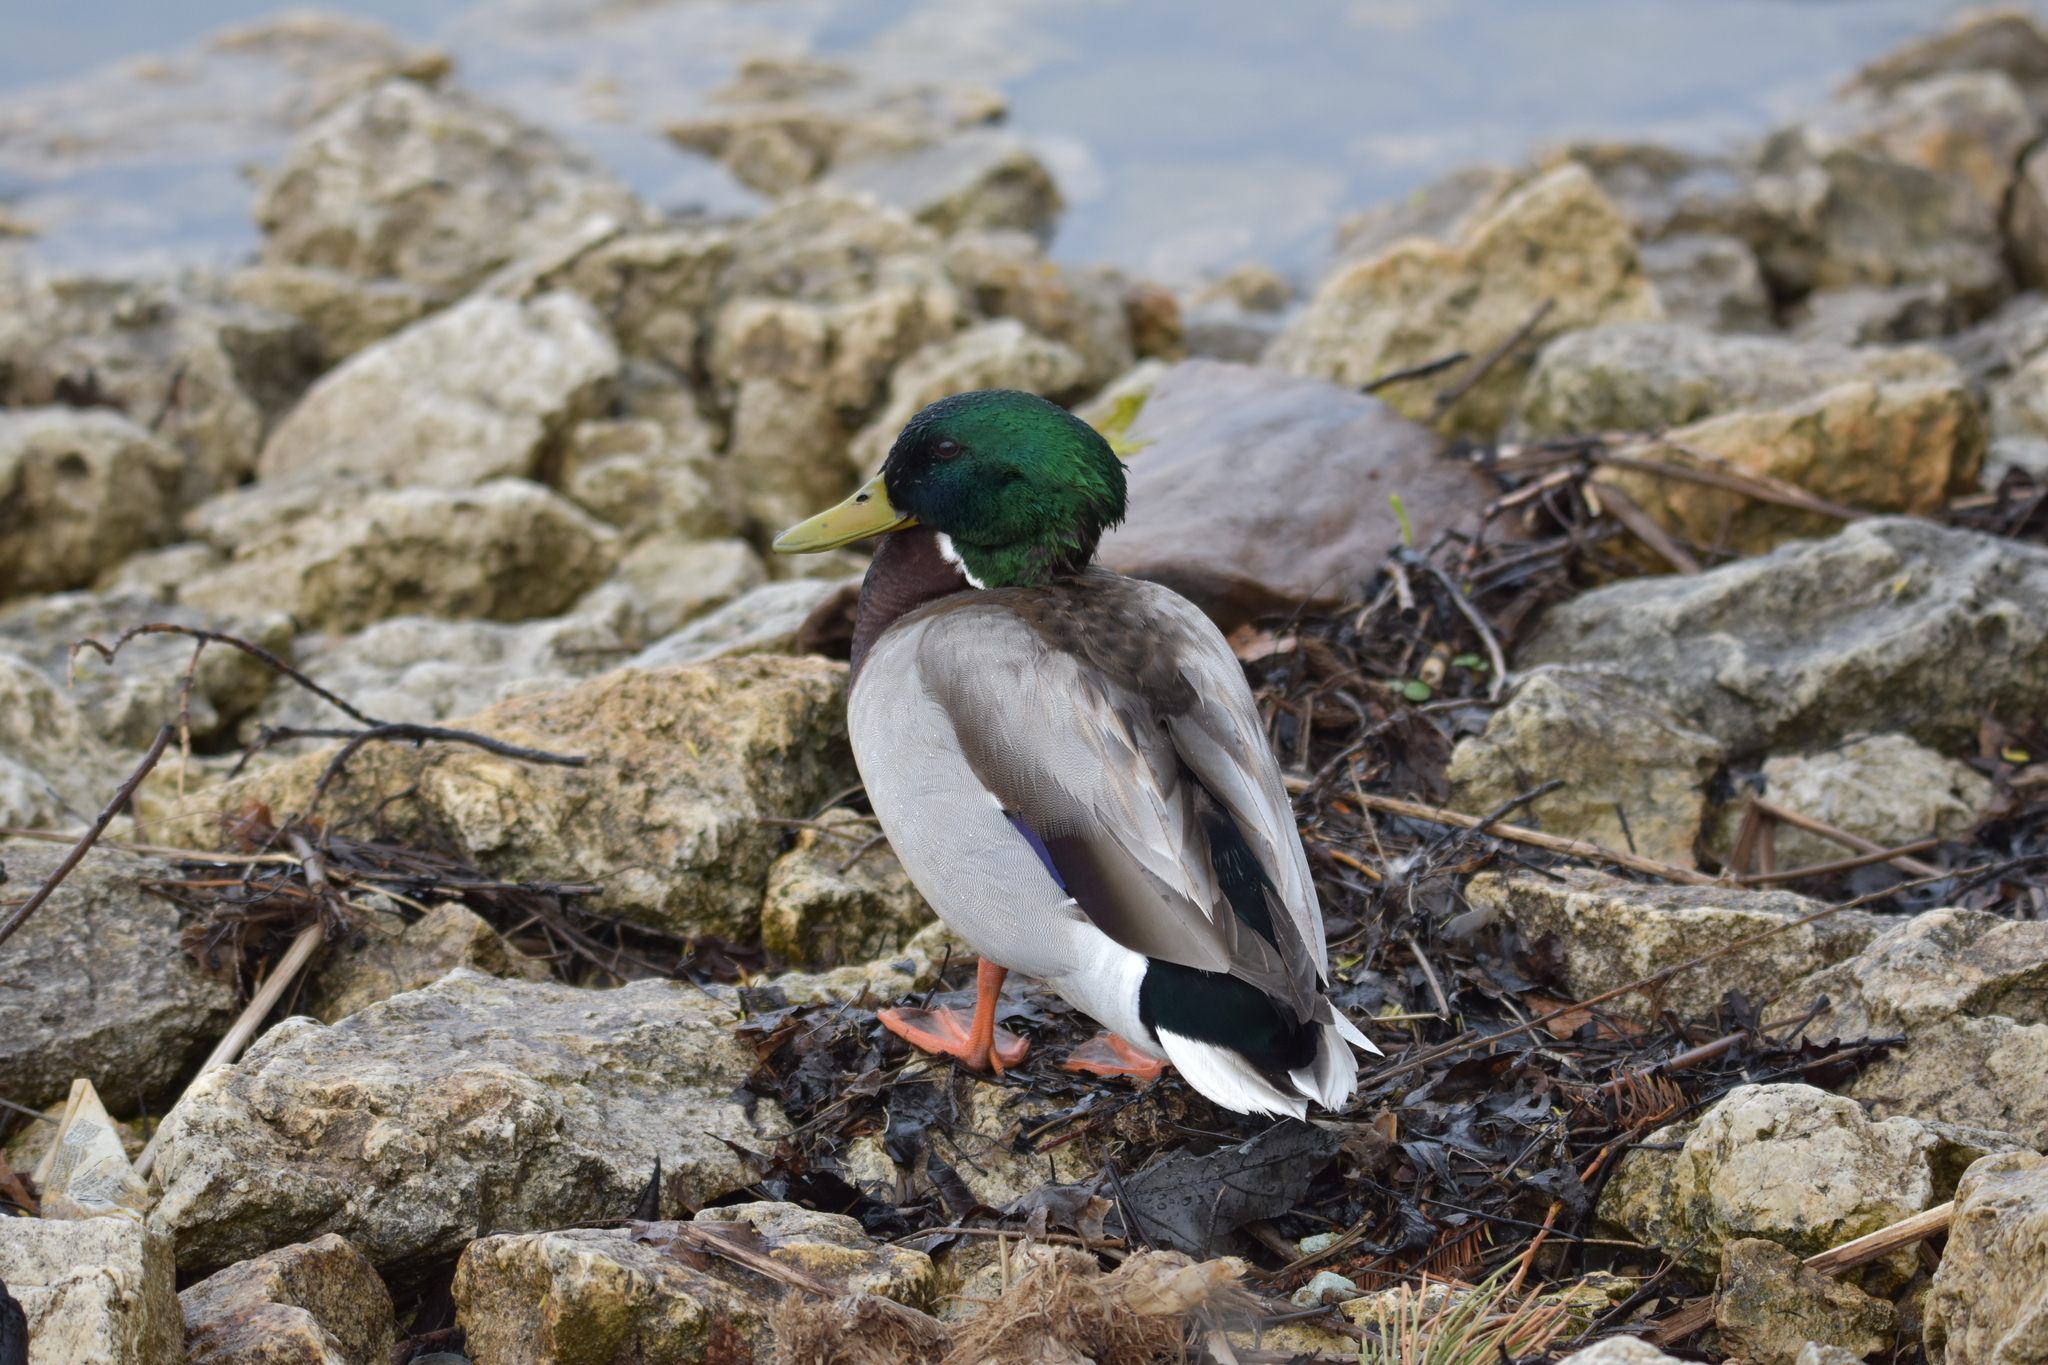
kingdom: Animalia
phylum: Chordata
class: Aves
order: Anseriformes
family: Anatidae
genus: Anas
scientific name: Anas platyrhynchos
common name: Mallard
